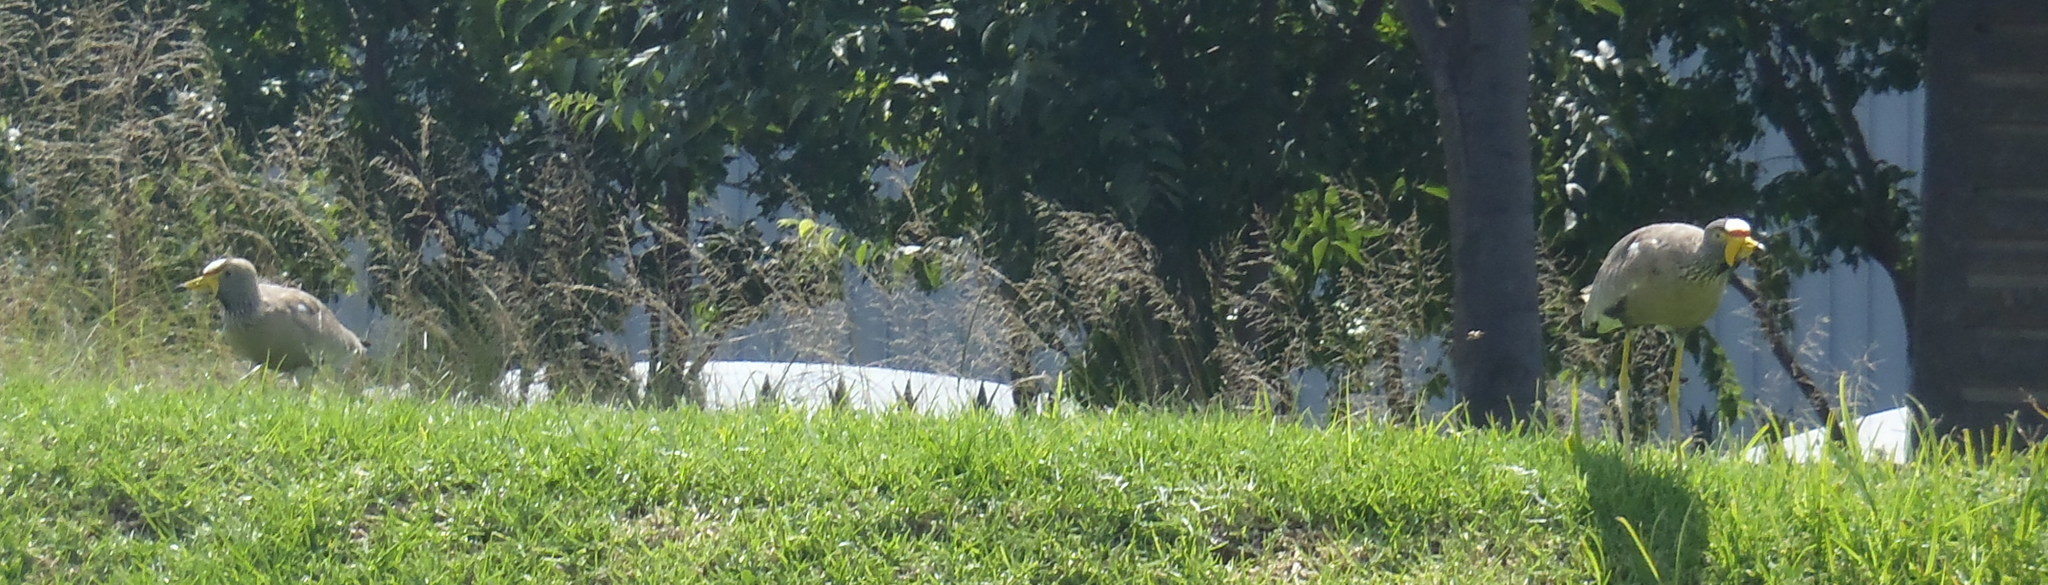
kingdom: Animalia
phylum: Chordata
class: Aves
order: Charadriiformes
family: Charadriidae
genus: Vanellus
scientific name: Vanellus senegallus
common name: African wattled lapwing
